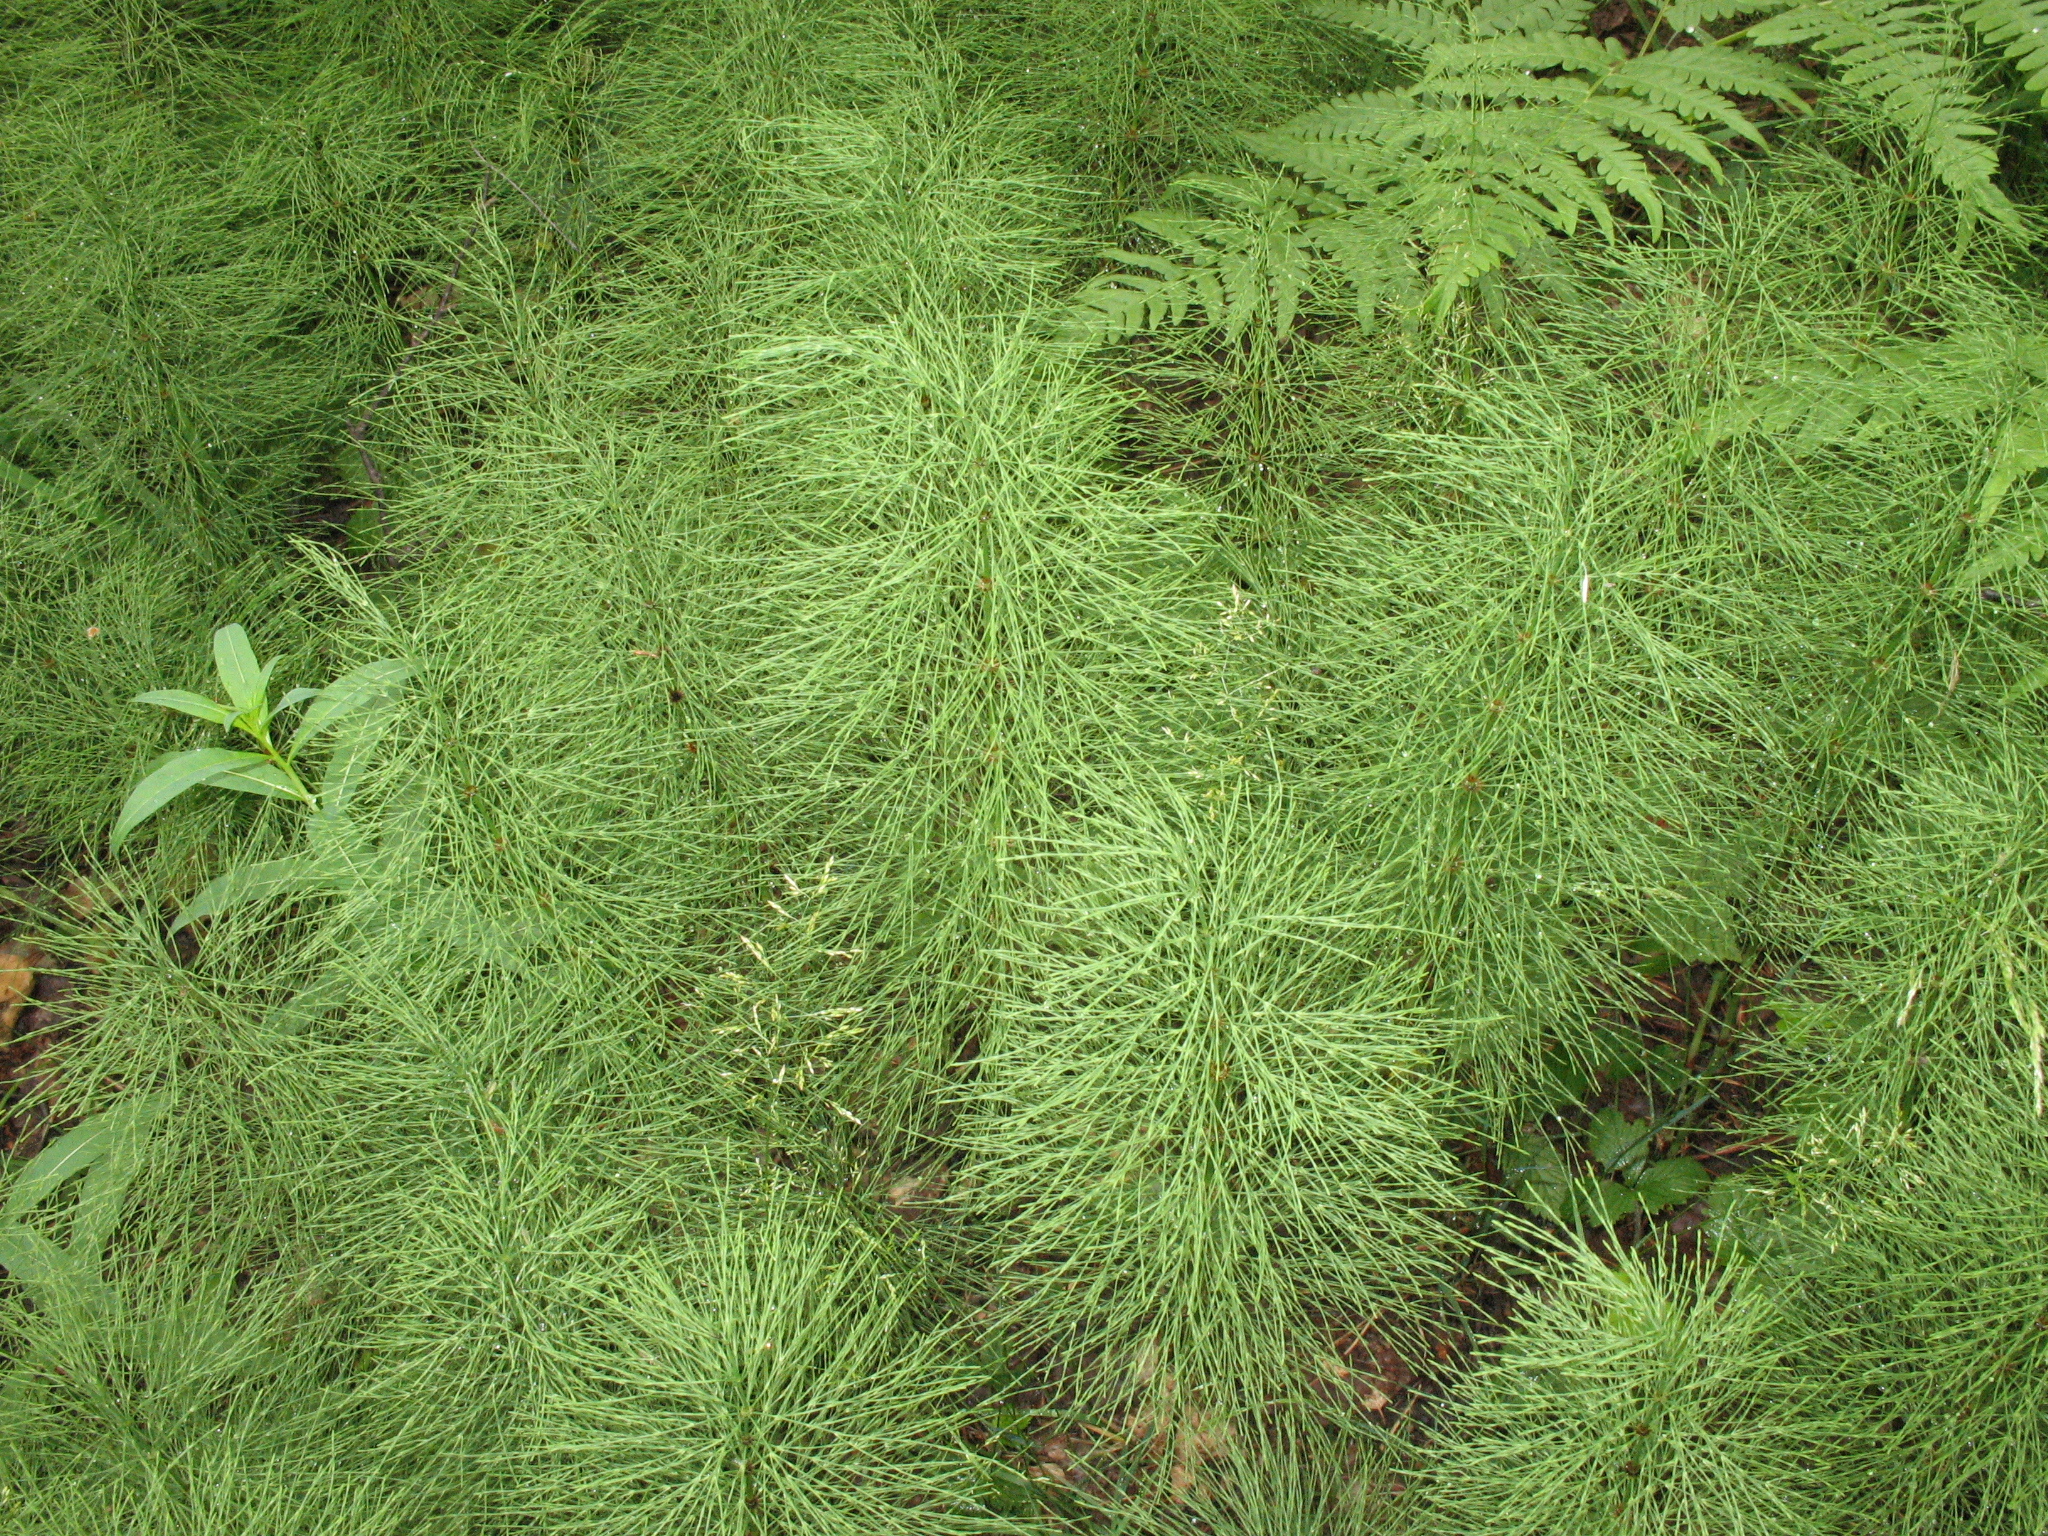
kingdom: Plantae
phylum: Tracheophyta
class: Polypodiopsida
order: Equisetales
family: Equisetaceae
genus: Equisetum
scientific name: Equisetum sylvaticum
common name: Wood horsetail
